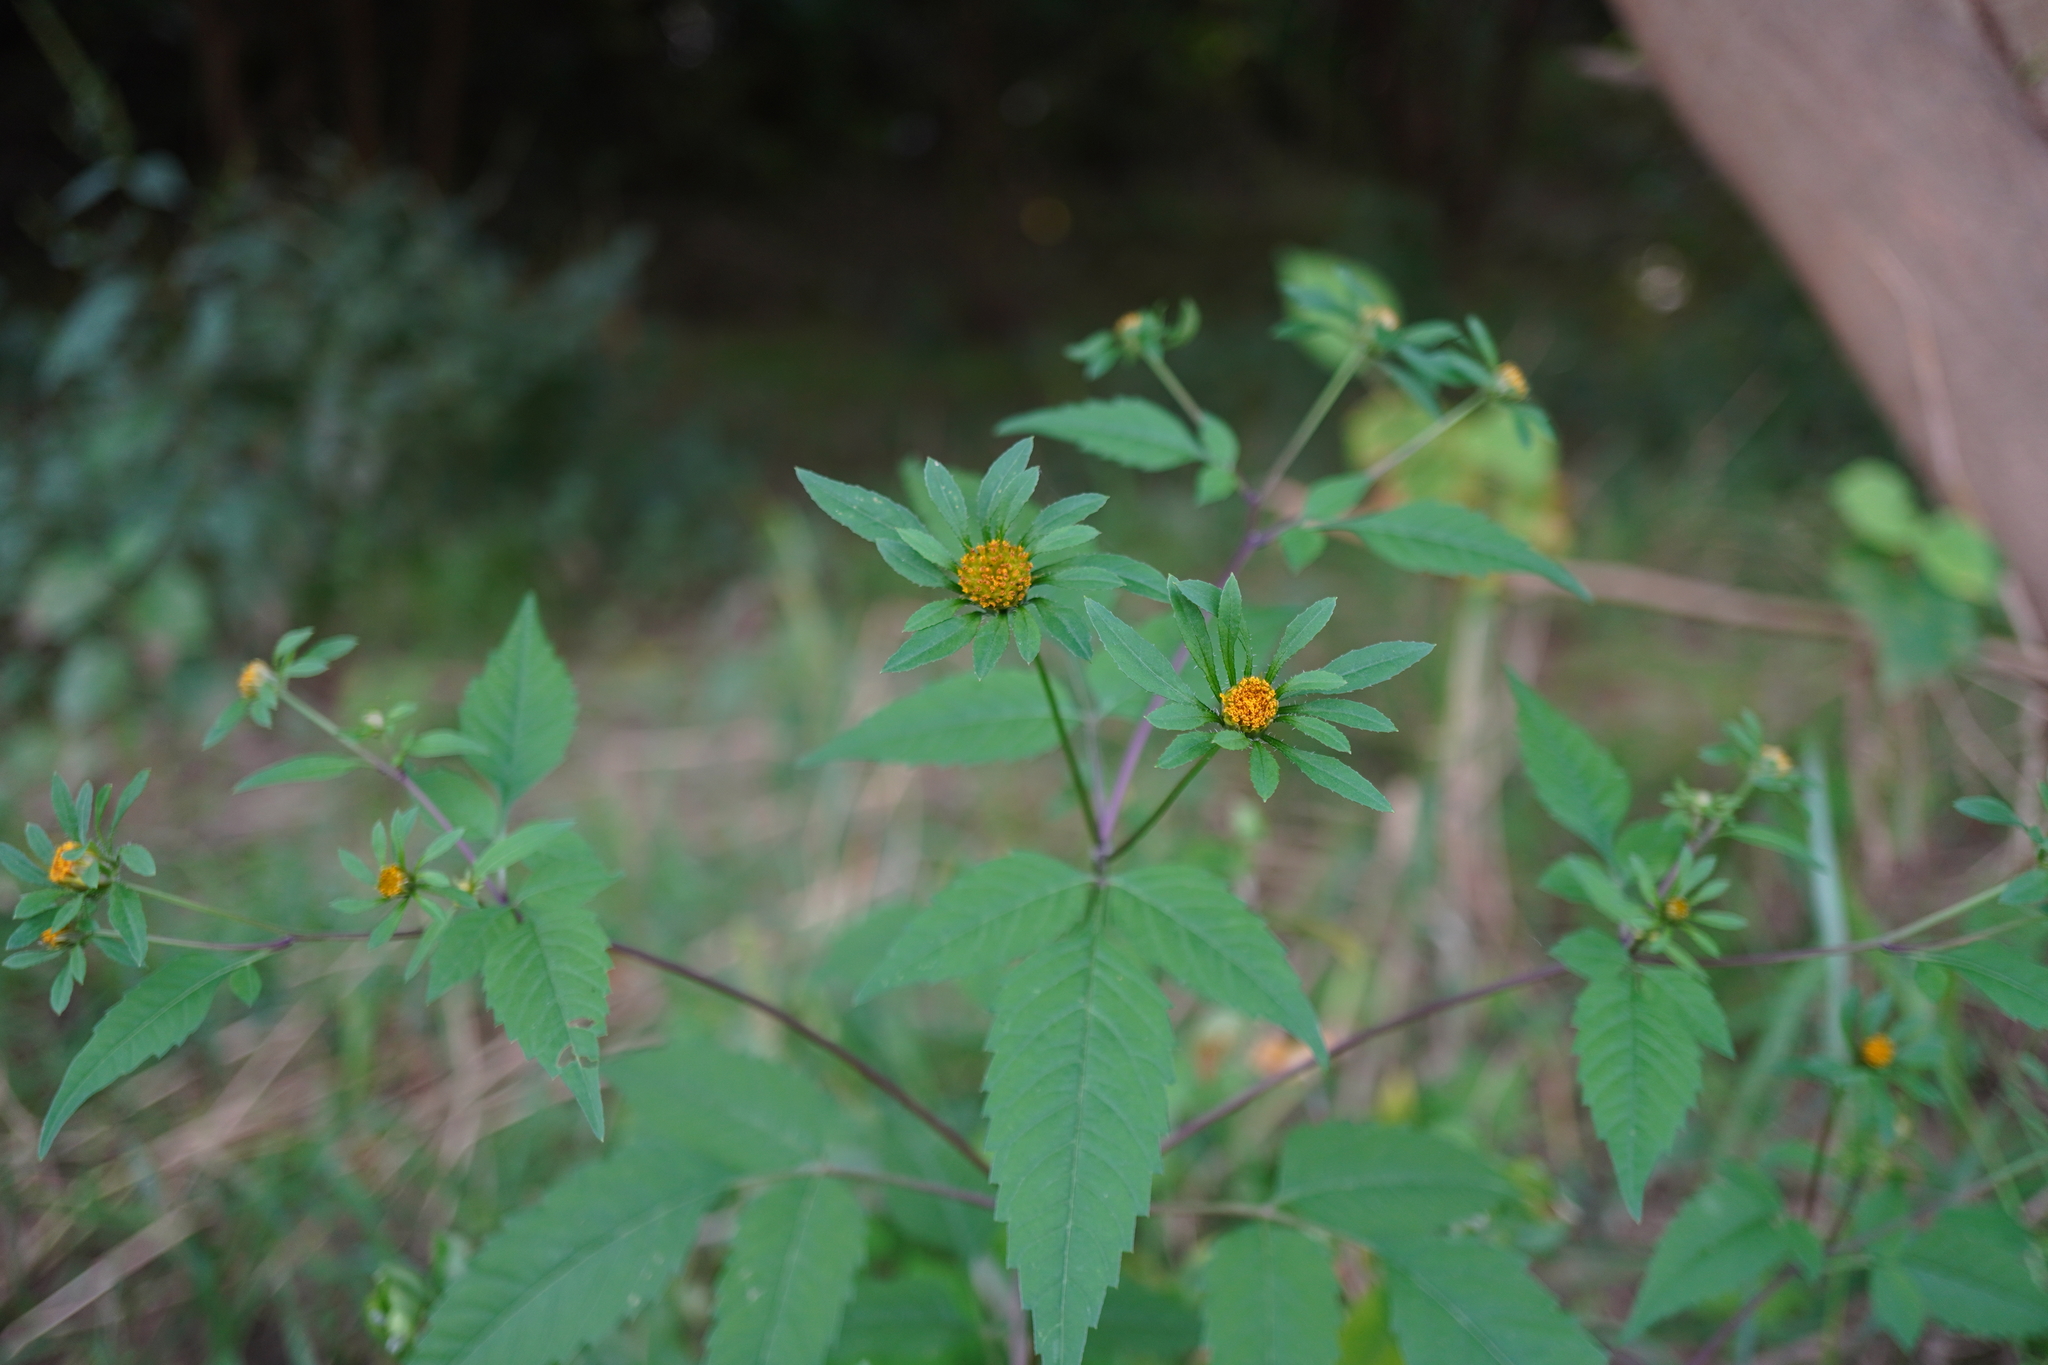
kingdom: Plantae
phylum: Tracheophyta
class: Magnoliopsida
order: Asterales
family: Asteraceae
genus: Bidens
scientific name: Bidens frondosa
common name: Beggarticks
